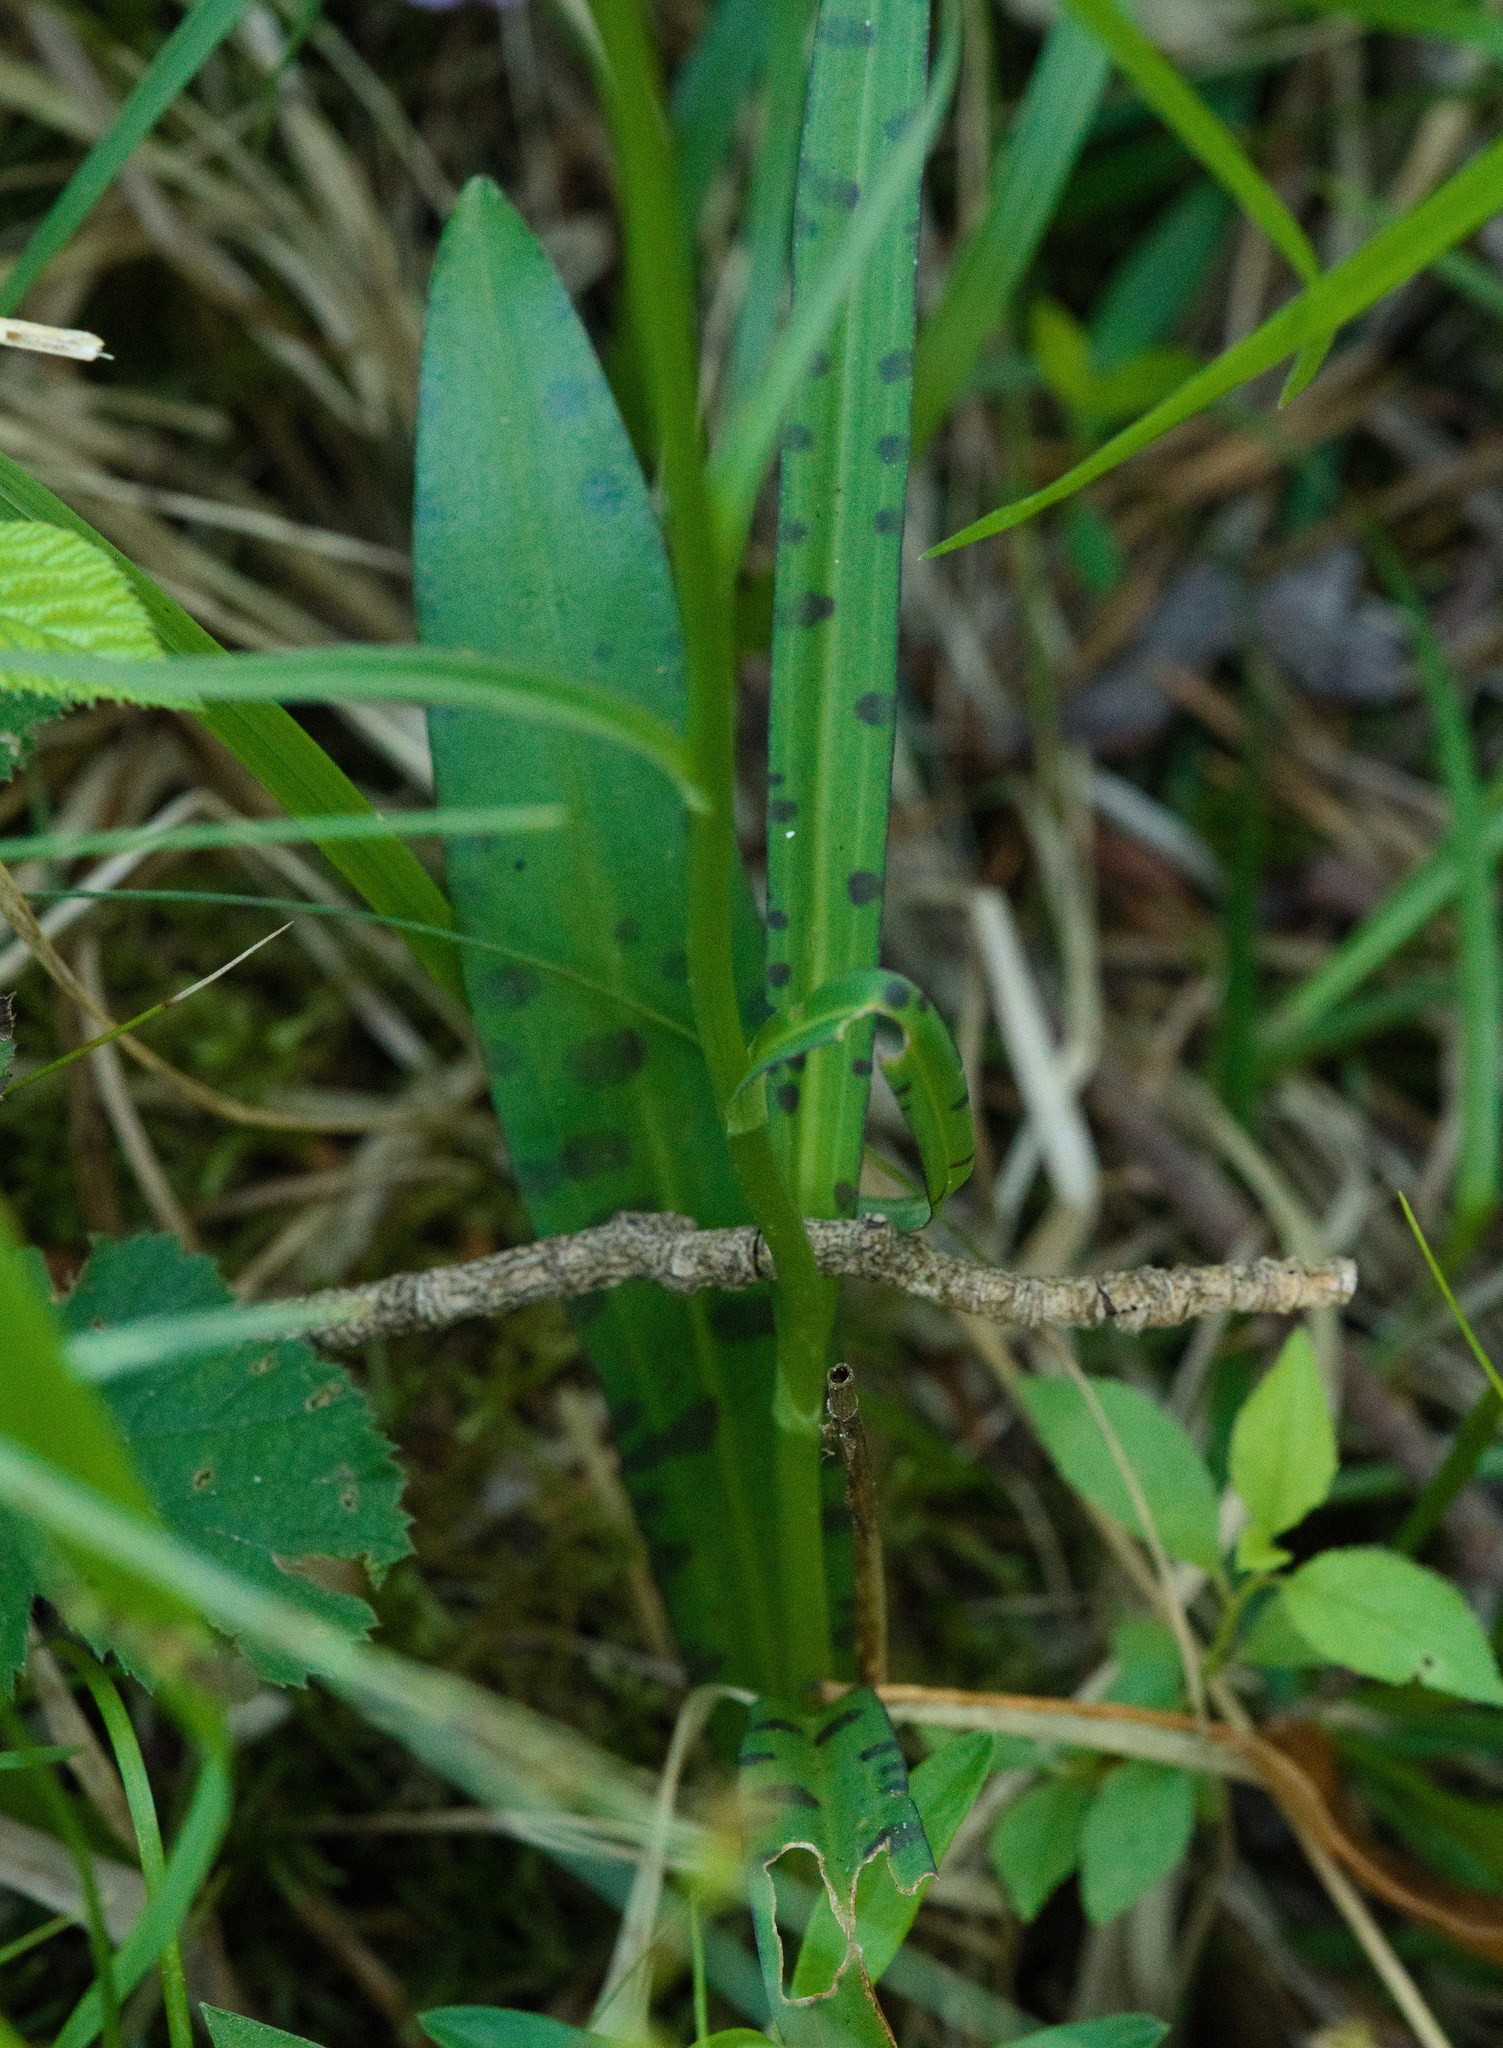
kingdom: Plantae
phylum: Tracheophyta
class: Liliopsida
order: Asparagales
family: Orchidaceae
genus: Dactylorhiza
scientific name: Dactylorhiza maculata
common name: Heath spotted-orchid
